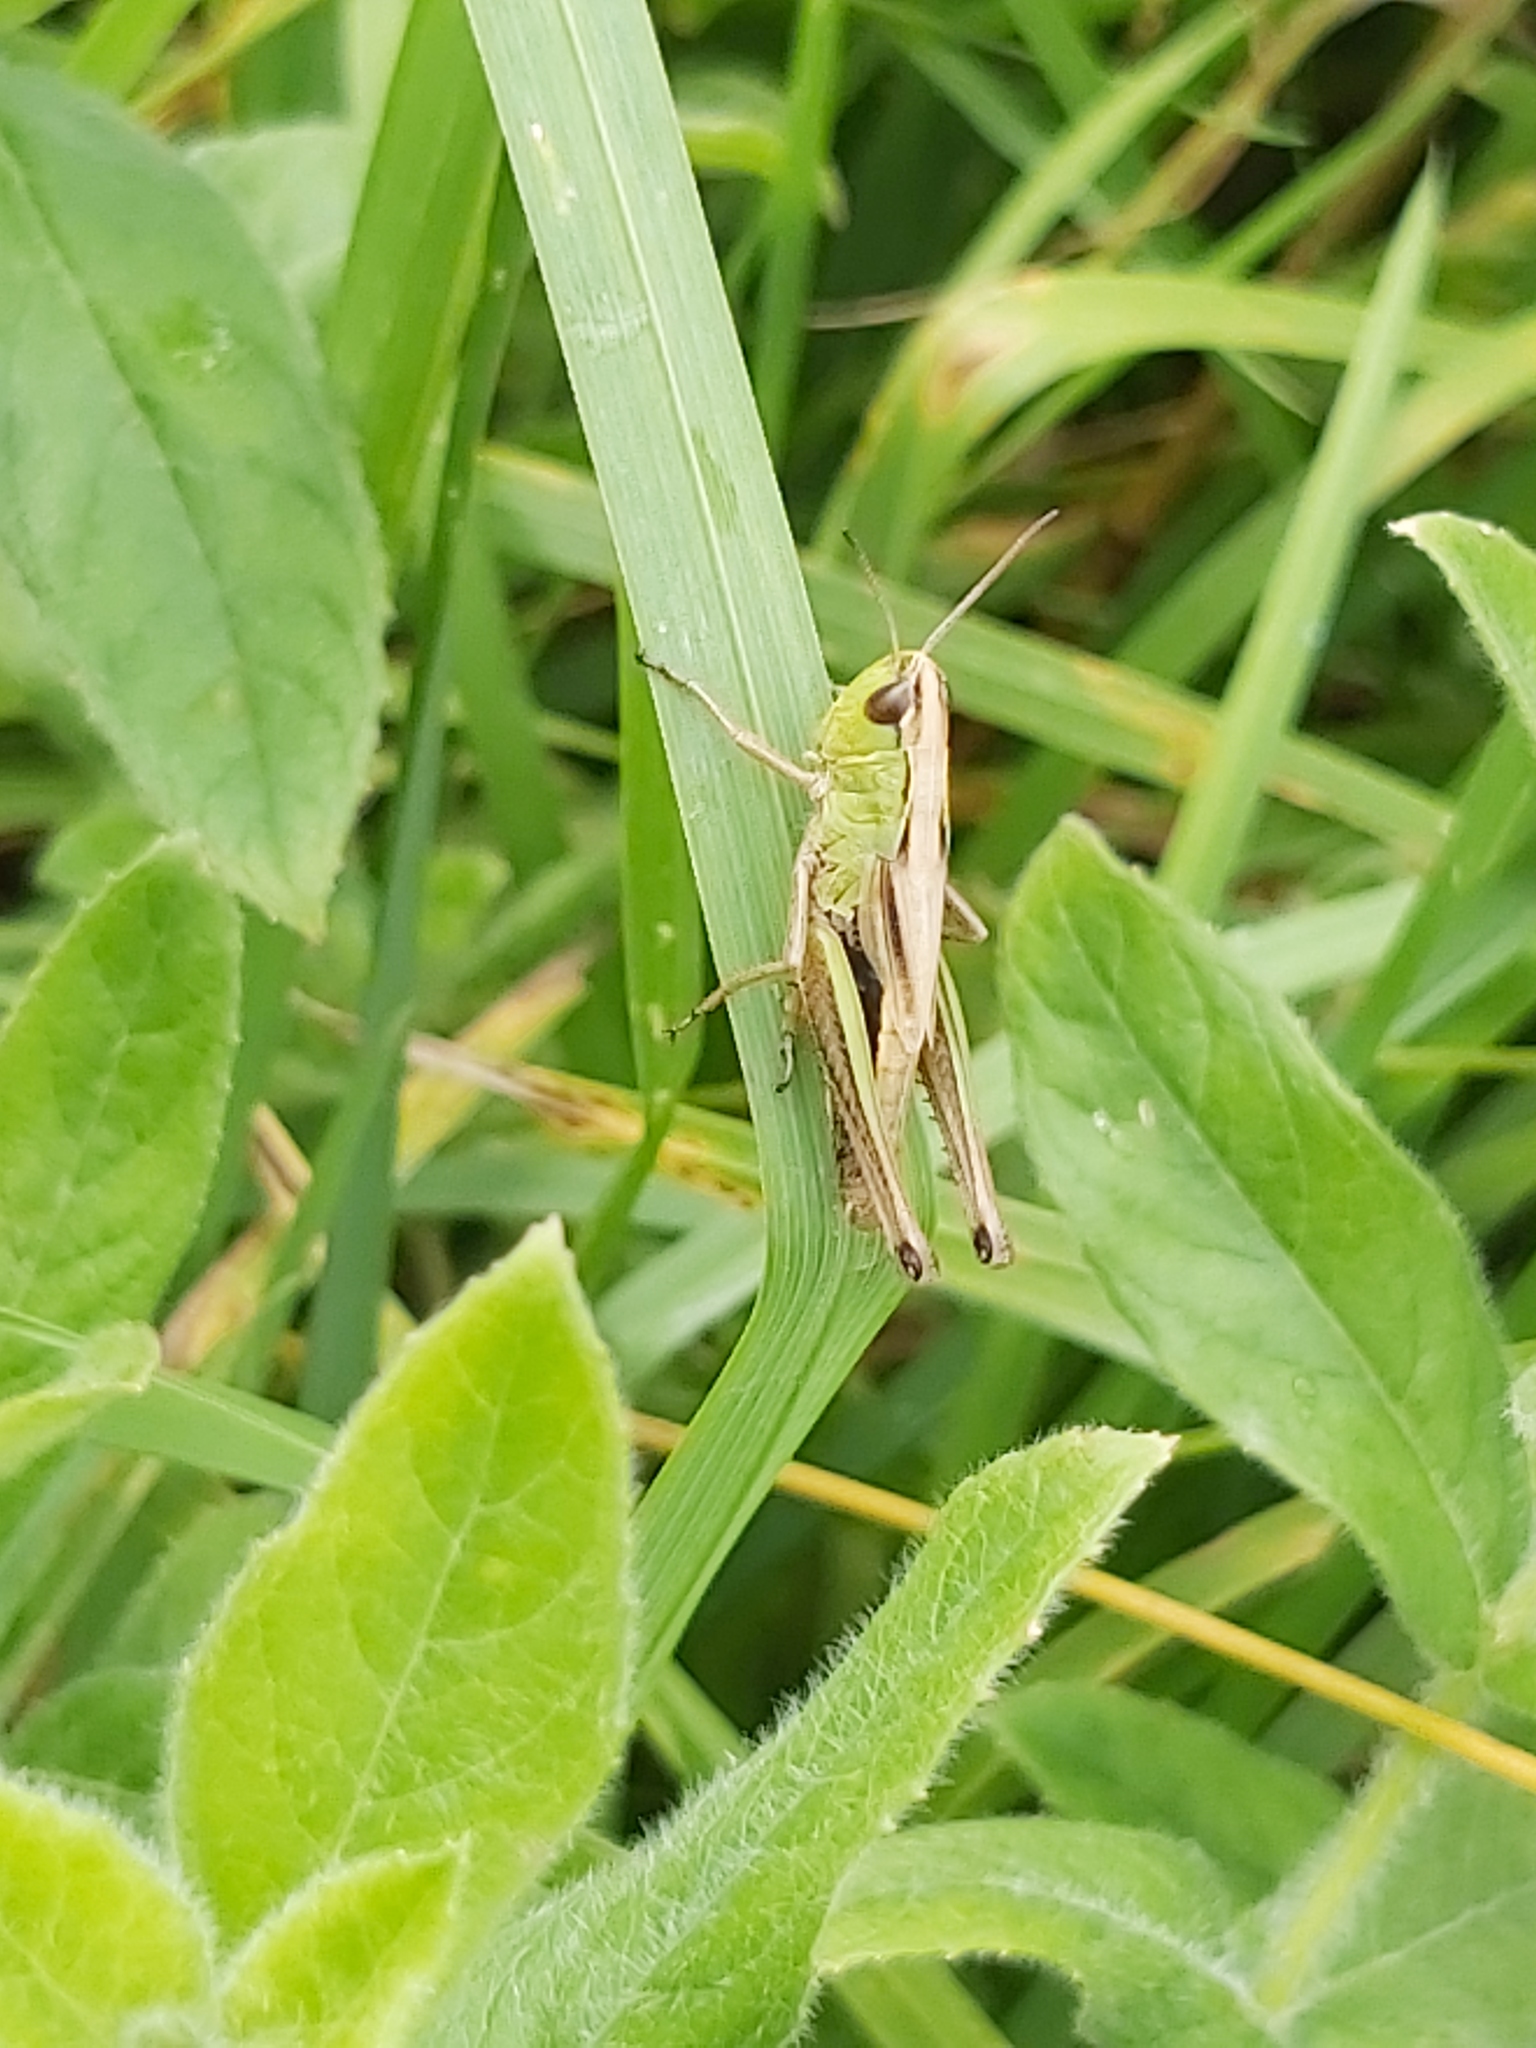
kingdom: Animalia
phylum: Arthropoda
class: Insecta
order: Orthoptera
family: Acrididae
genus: Pseudochorthippus
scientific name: Pseudochorthippus parallelus
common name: Meadow grasshopper
